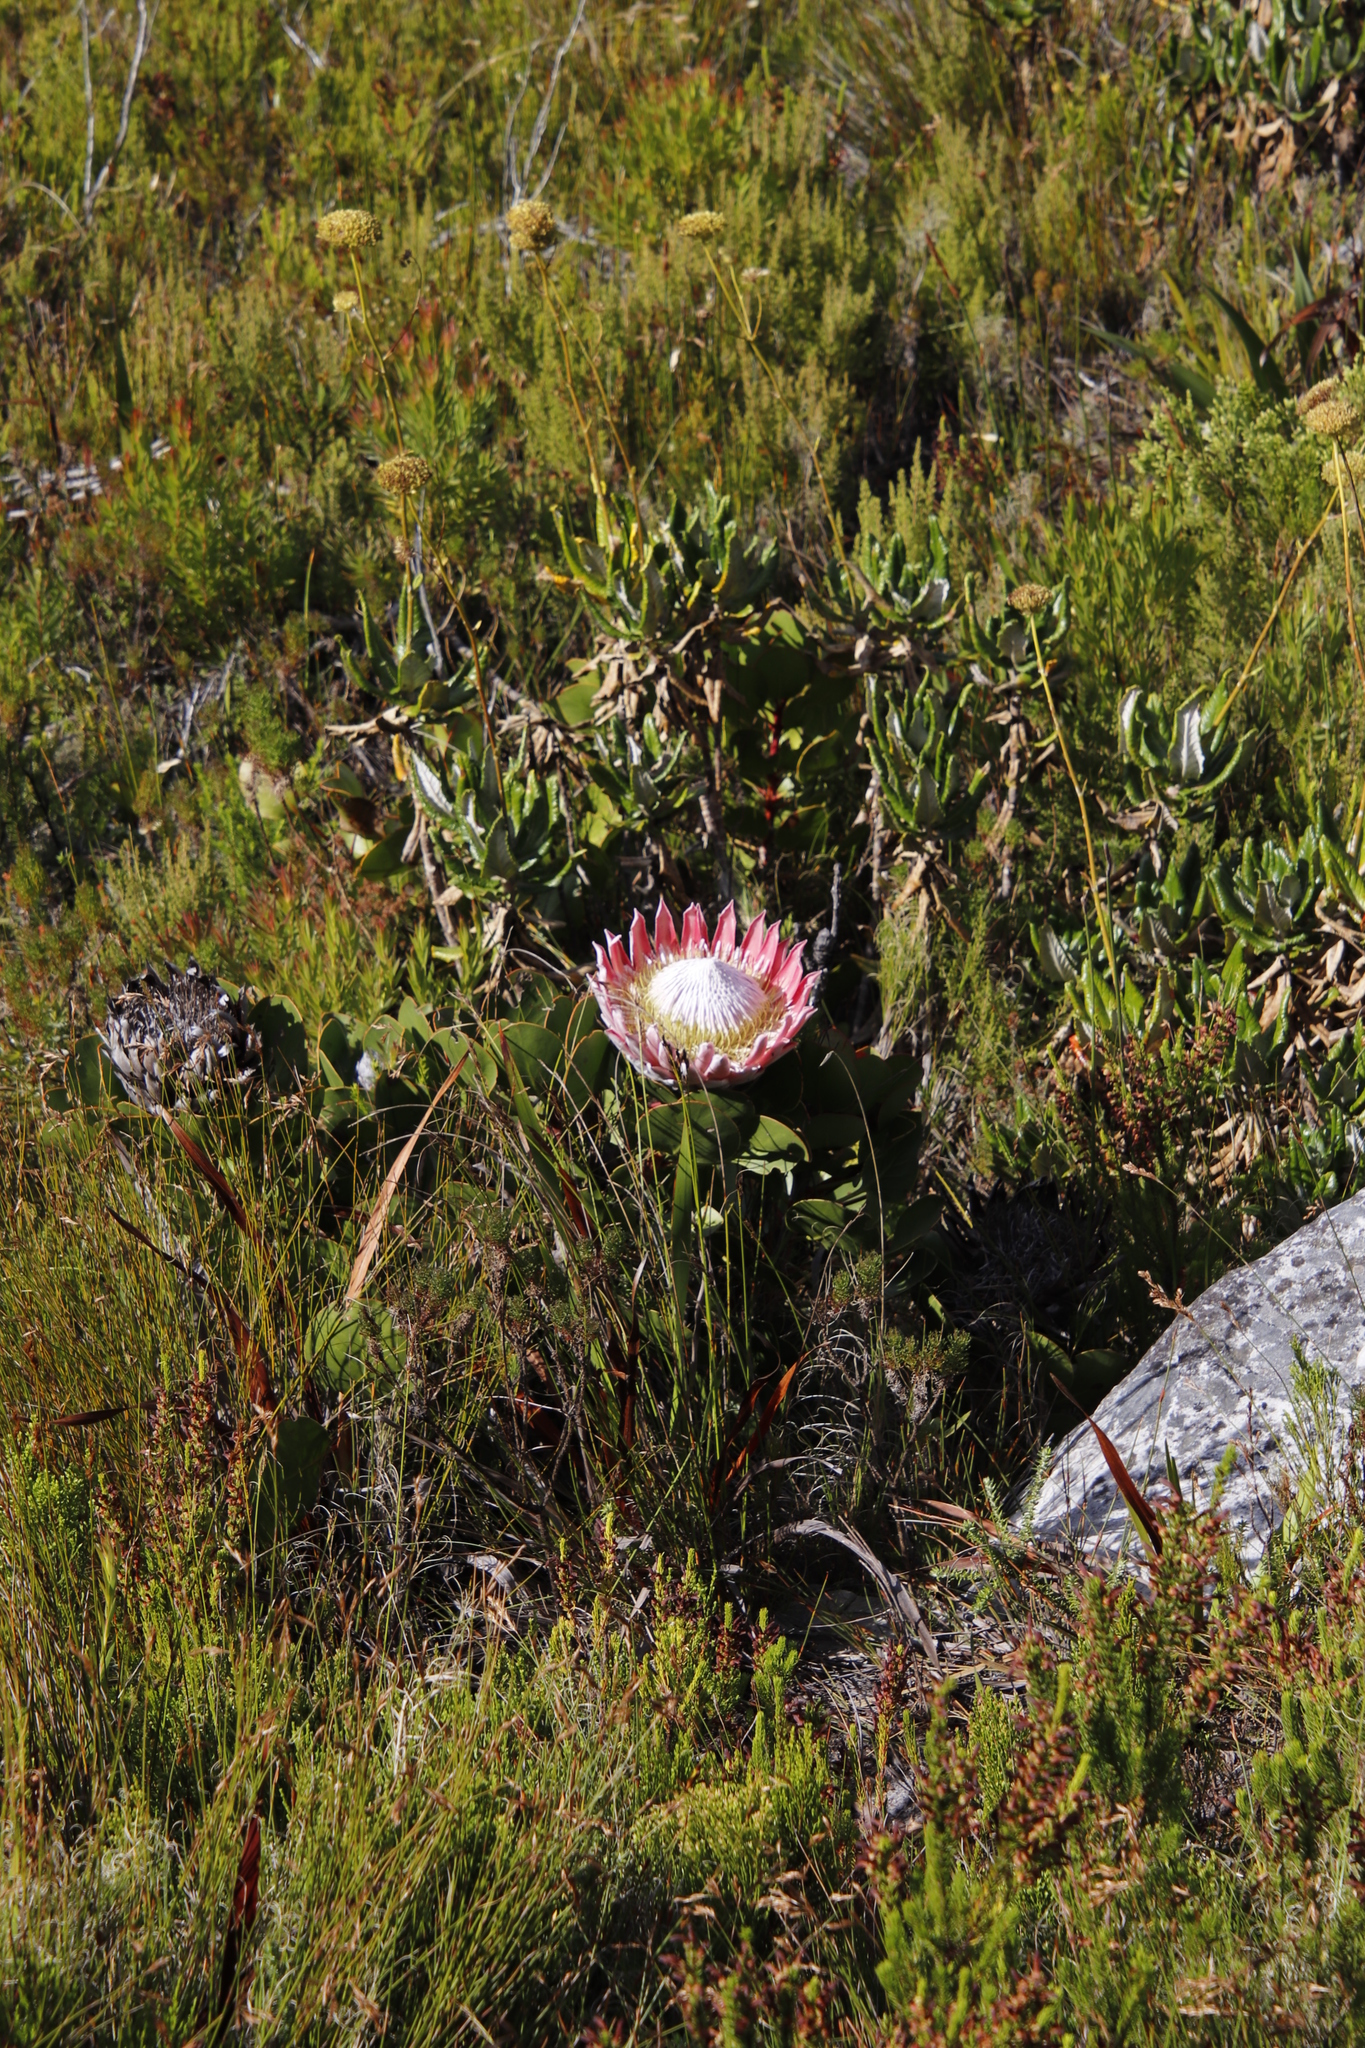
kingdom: Plantae
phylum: Tracheophyta
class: Magnoliopsida
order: Proteales
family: Proteaceae
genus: Protea
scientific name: Protea cynaroides
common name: King protea
